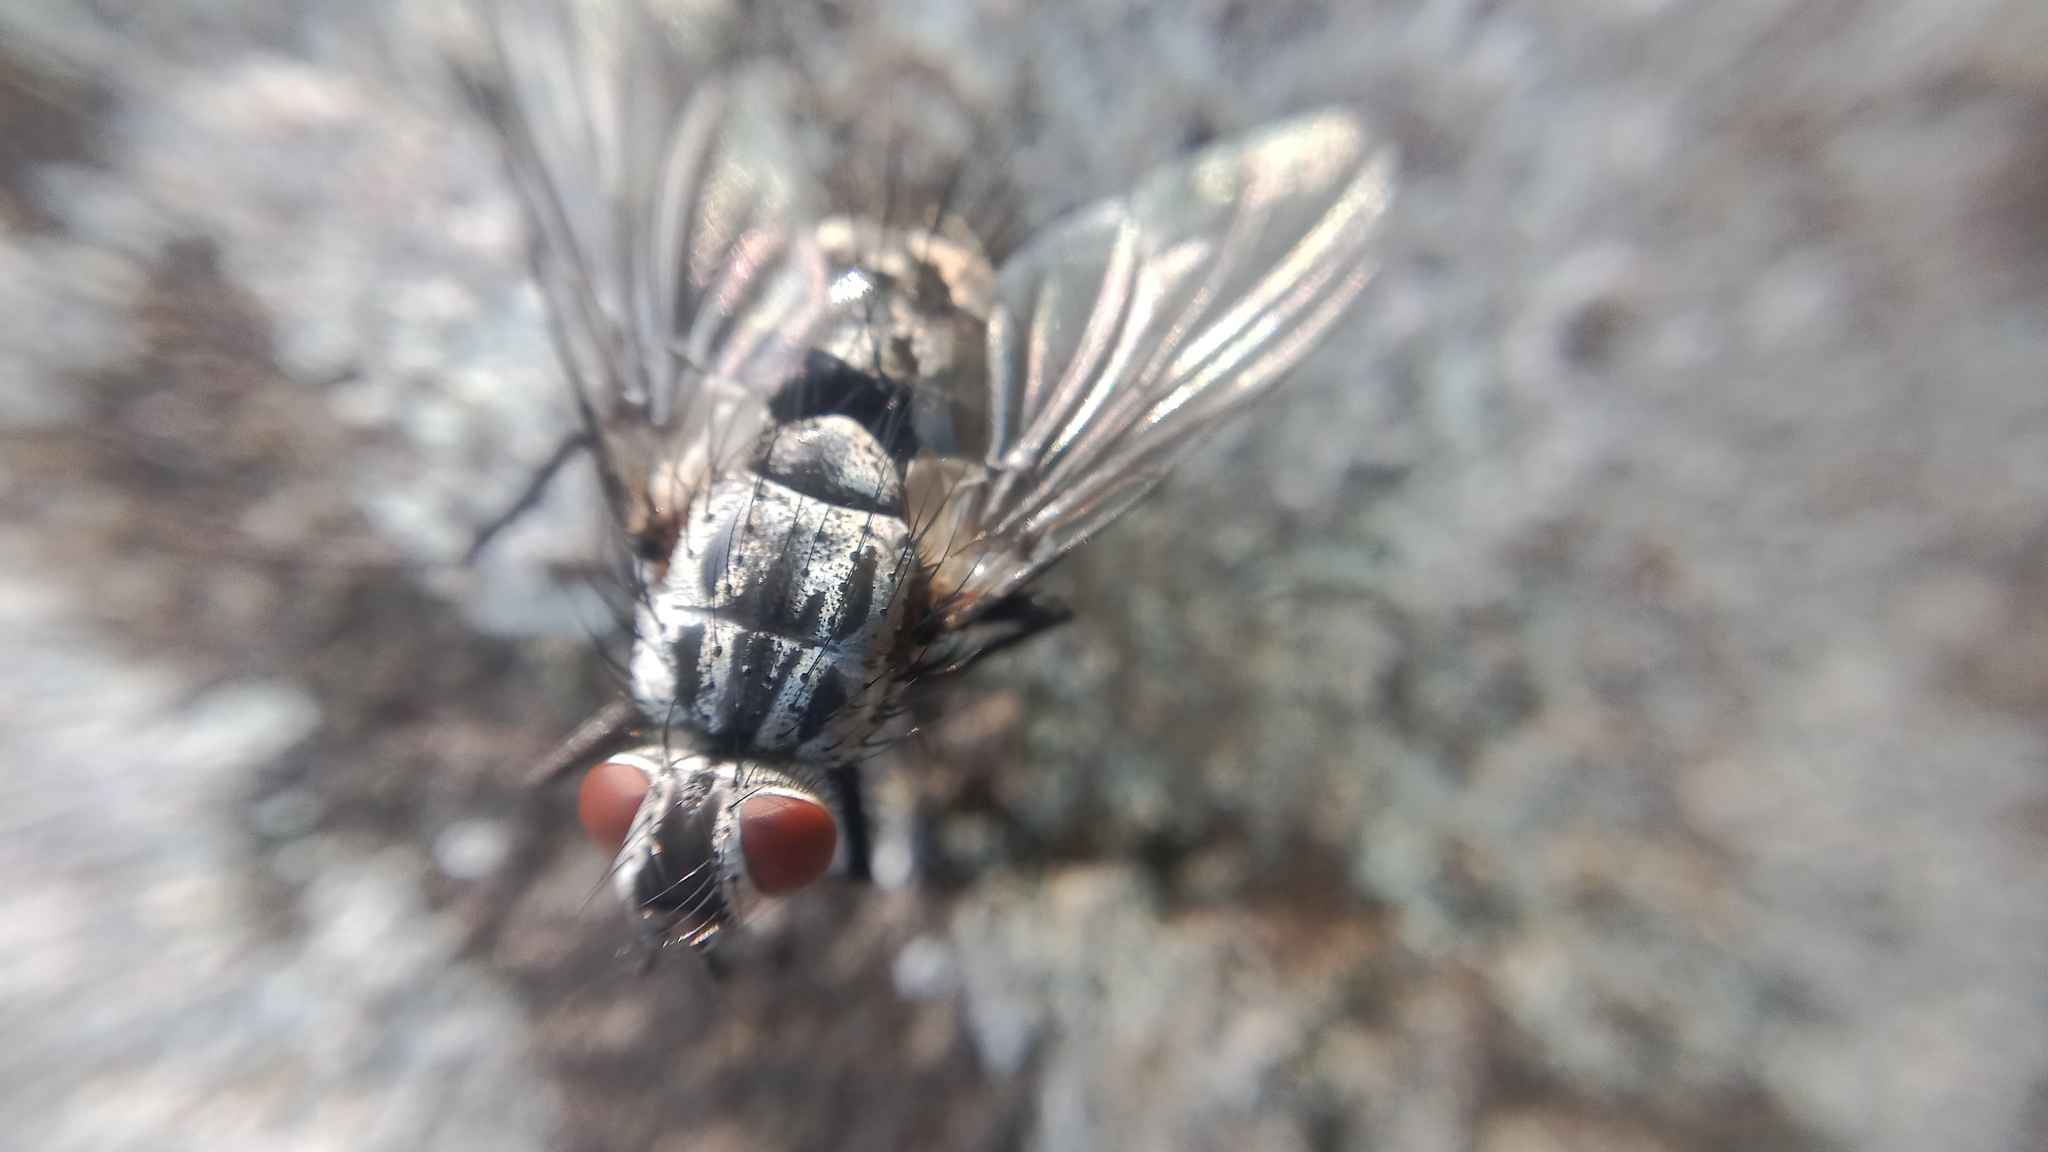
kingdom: Animalia
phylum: Arthropoda
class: Insecta
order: Diptera
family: Tachinidae
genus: Dinera
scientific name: Dinera ferina
